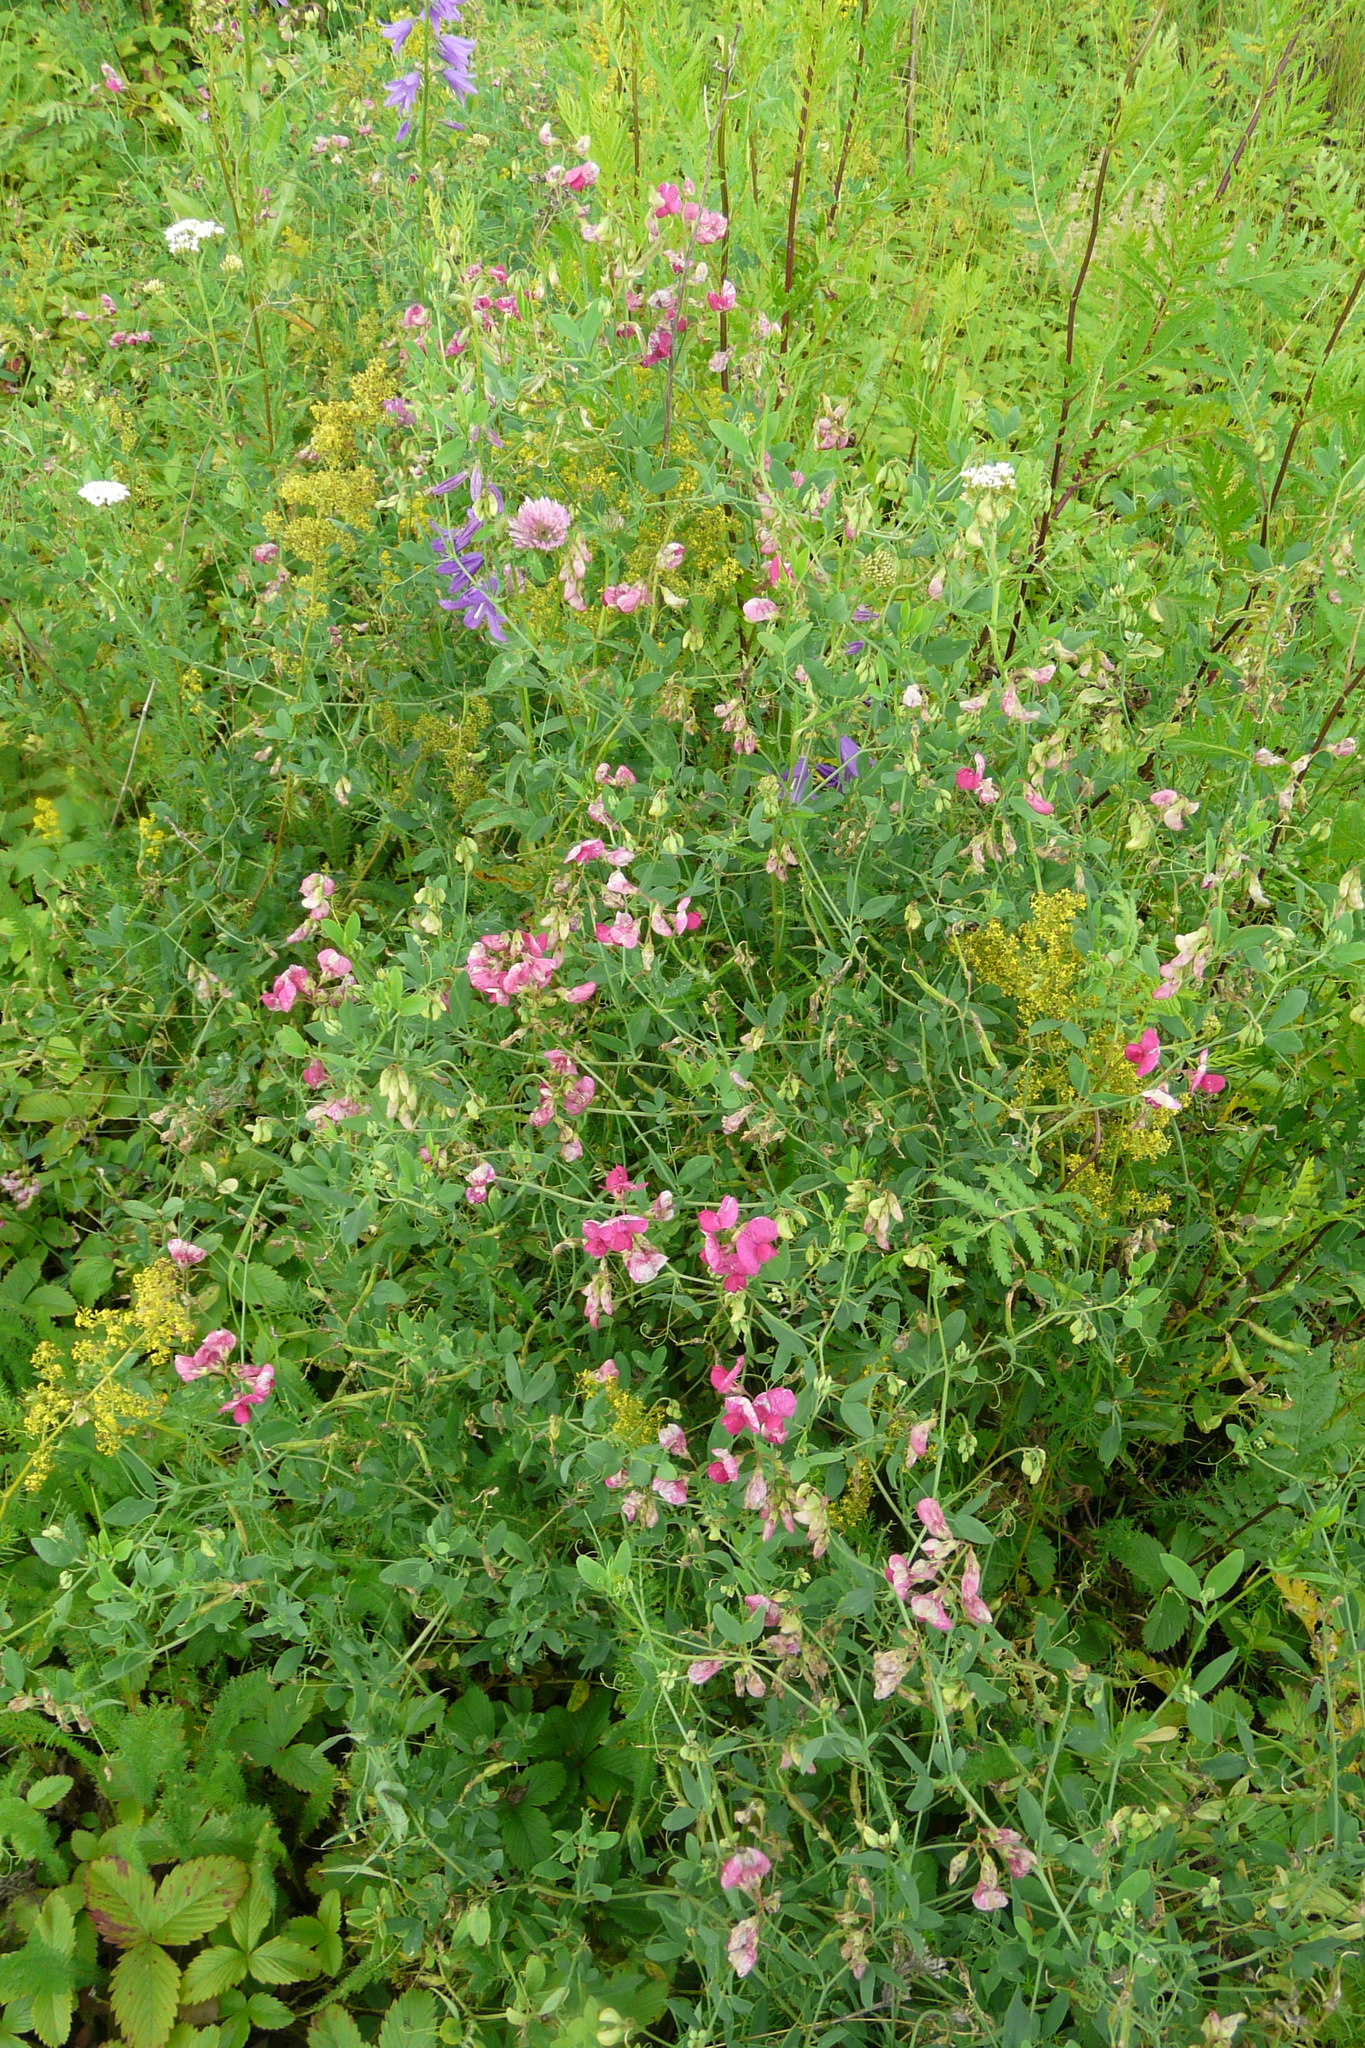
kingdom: Plantae
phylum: Tracheophyta
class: Magnoliopsida
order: Fabales
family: Fabaceae
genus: Lathyrus
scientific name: Lathyrus tuberosus
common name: Tuberous pea
